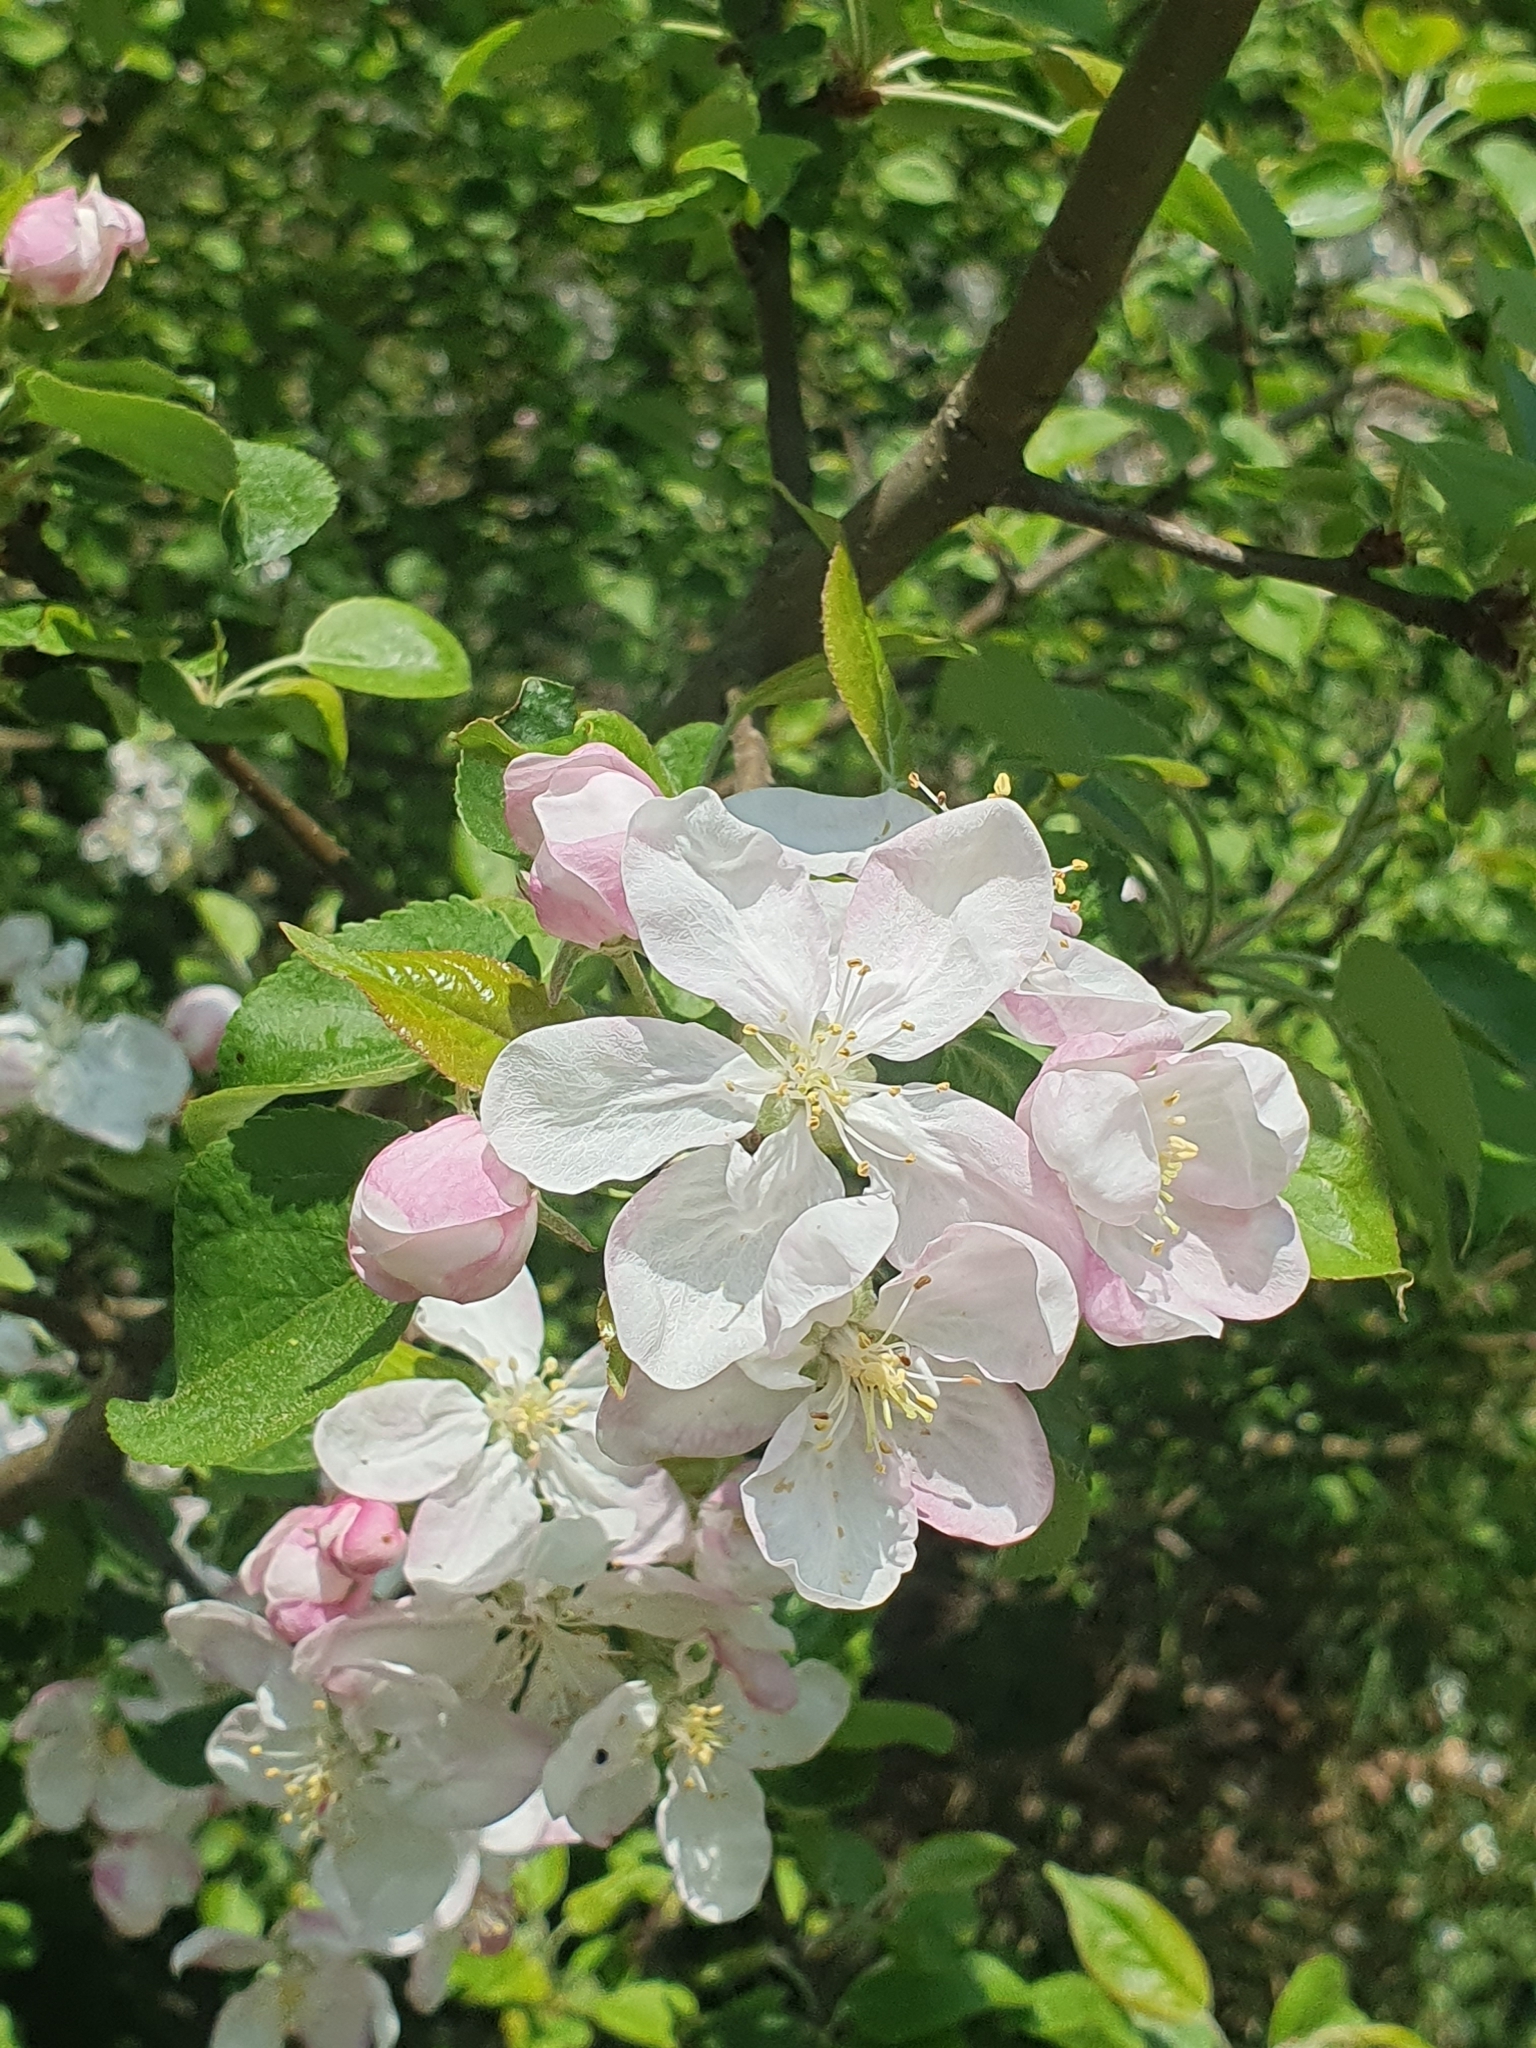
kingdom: Plantae
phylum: Tracheophyta
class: Magnoliopsida
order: Rosales
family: Rosaceae
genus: Malus
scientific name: Malus domestica
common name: Apple
